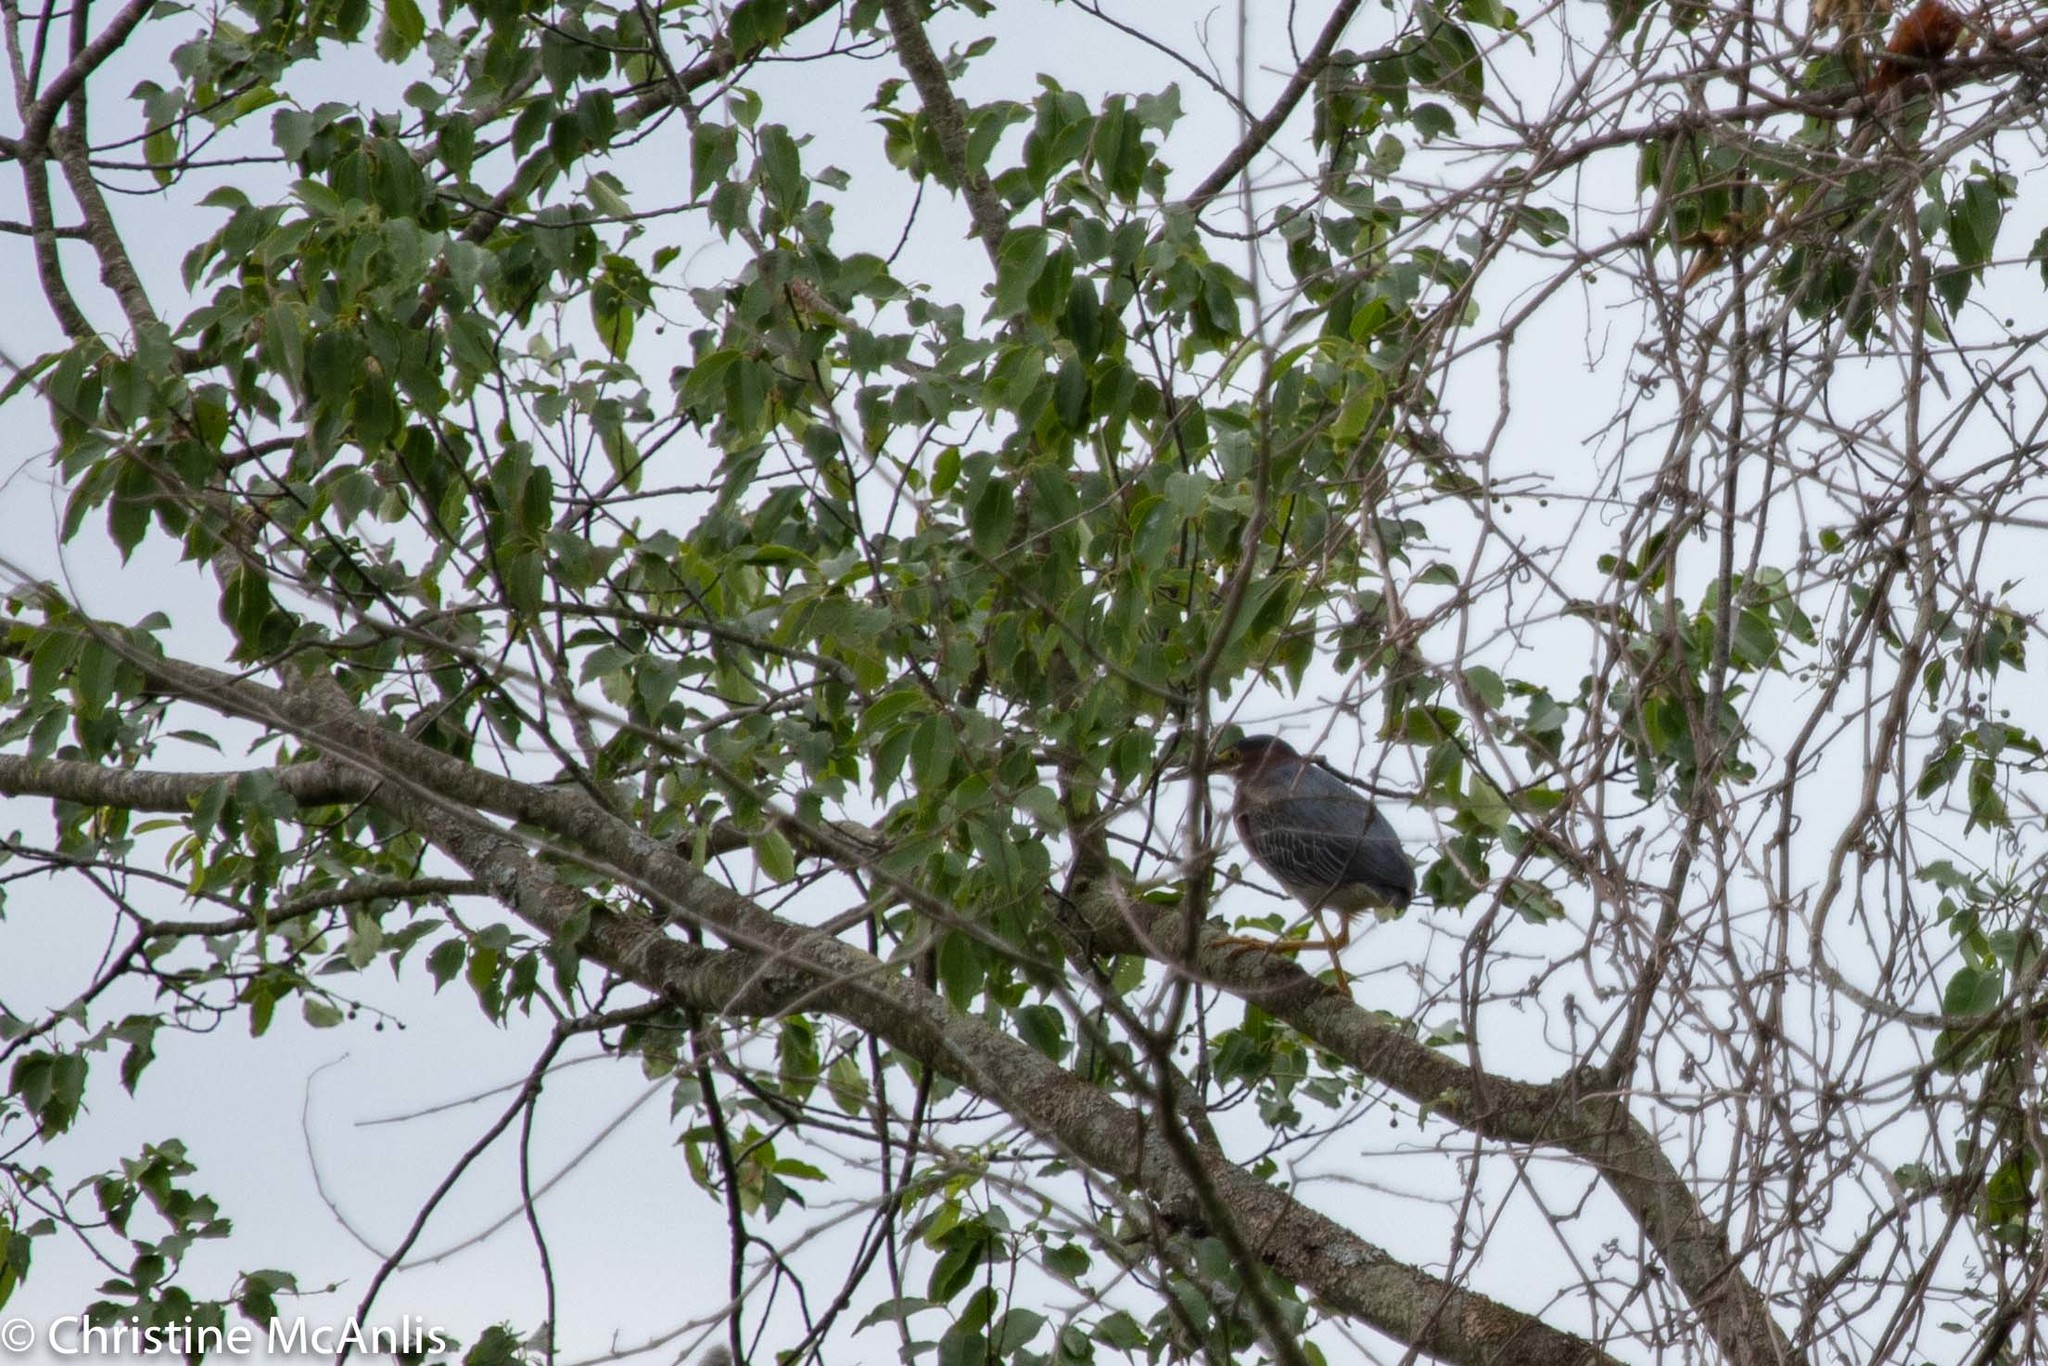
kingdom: Animalia
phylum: Chordata
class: Aves
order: Pelecaniformes
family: Ardeidae
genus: Butorides
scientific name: Butorides virescens
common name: Green heron
